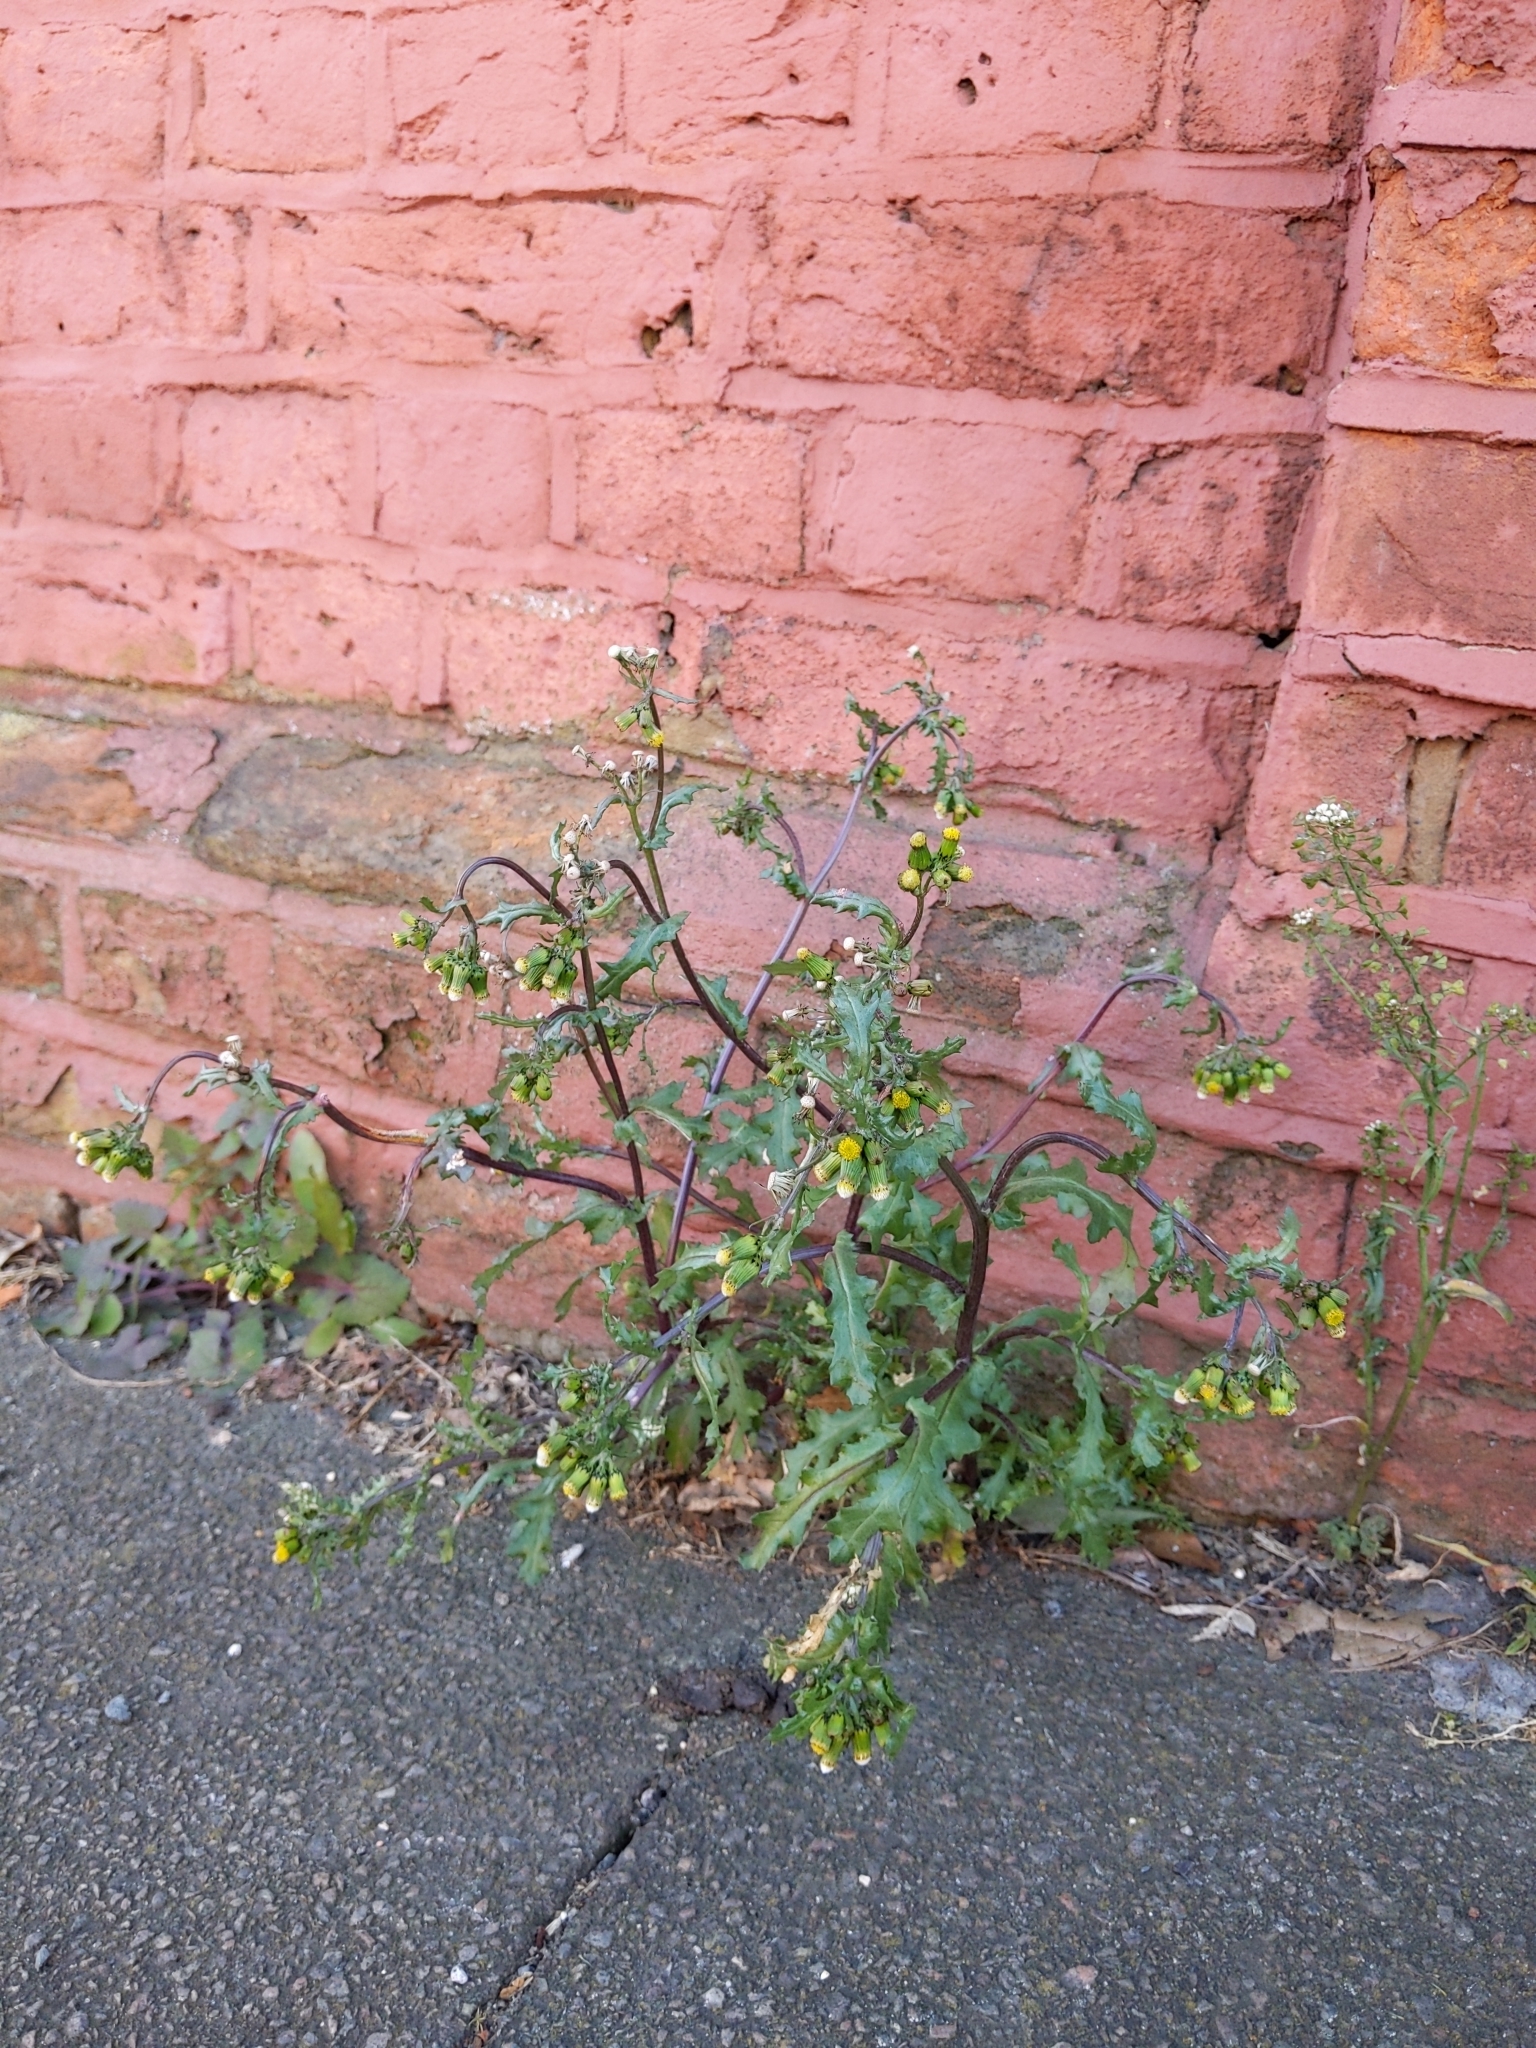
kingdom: Plantae
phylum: Tracheophyta
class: Magnoliopsida
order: Asterales
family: Asteraceae
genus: Senecio
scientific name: Senecio vulgaris
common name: Old-man-in-the-spring
